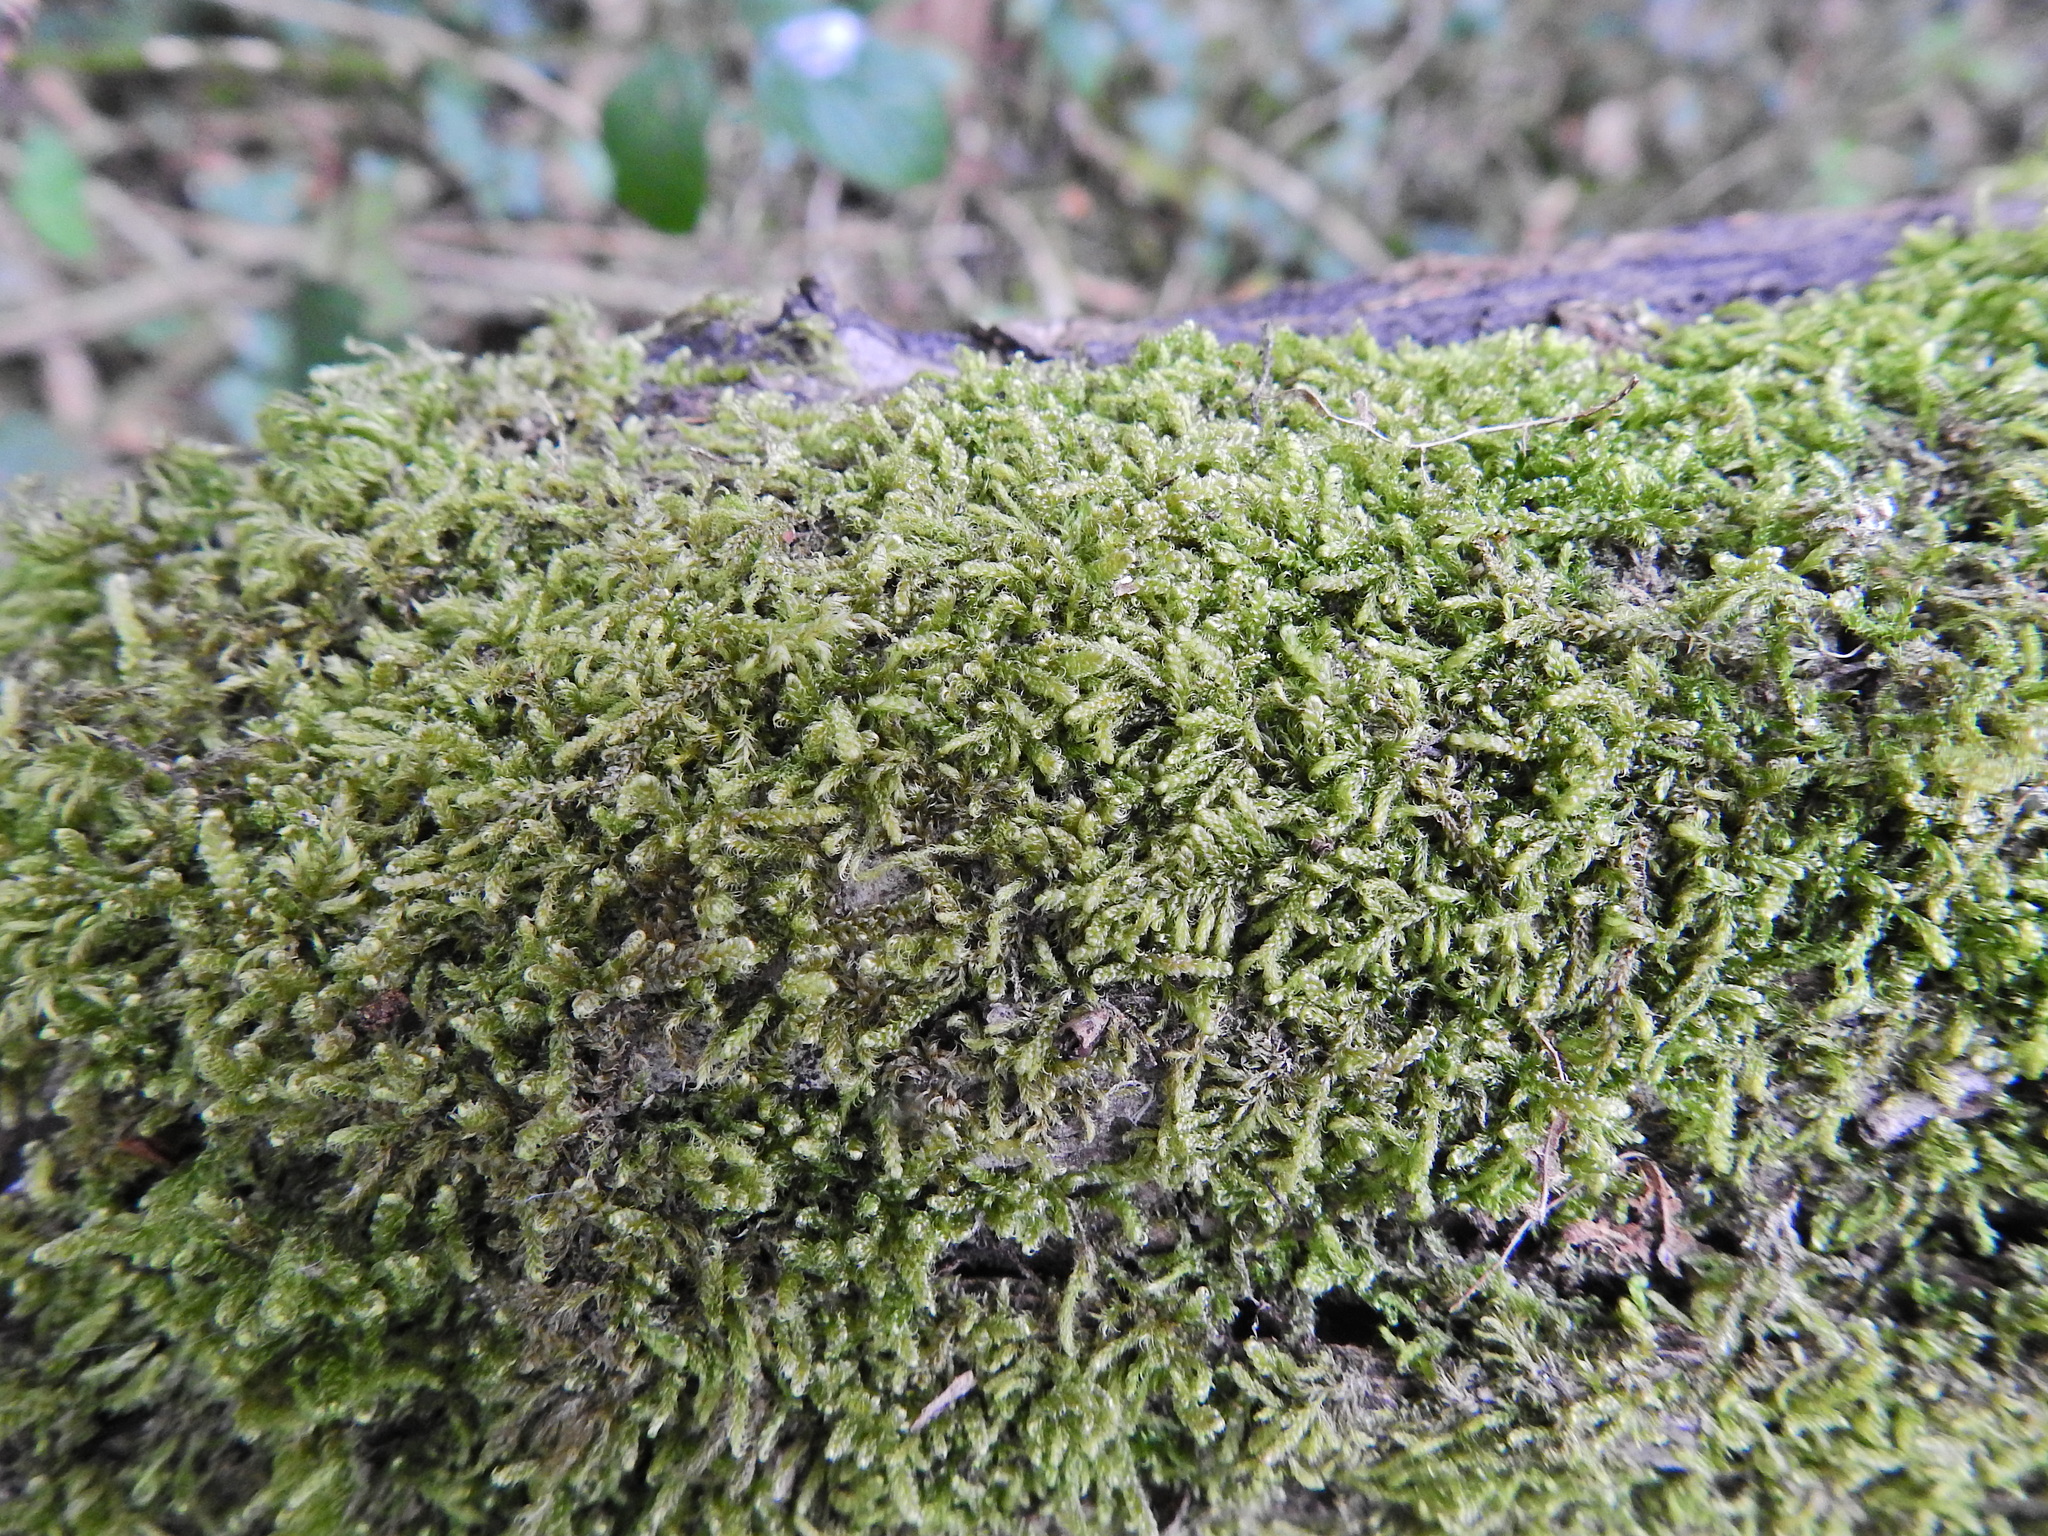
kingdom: Plantae
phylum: Bryophyta
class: Bryopsida
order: Hypnales
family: Hypnaceae
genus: Hypnum
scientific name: Hypnum cupressiforme
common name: Cypress-leaved plait-moss
